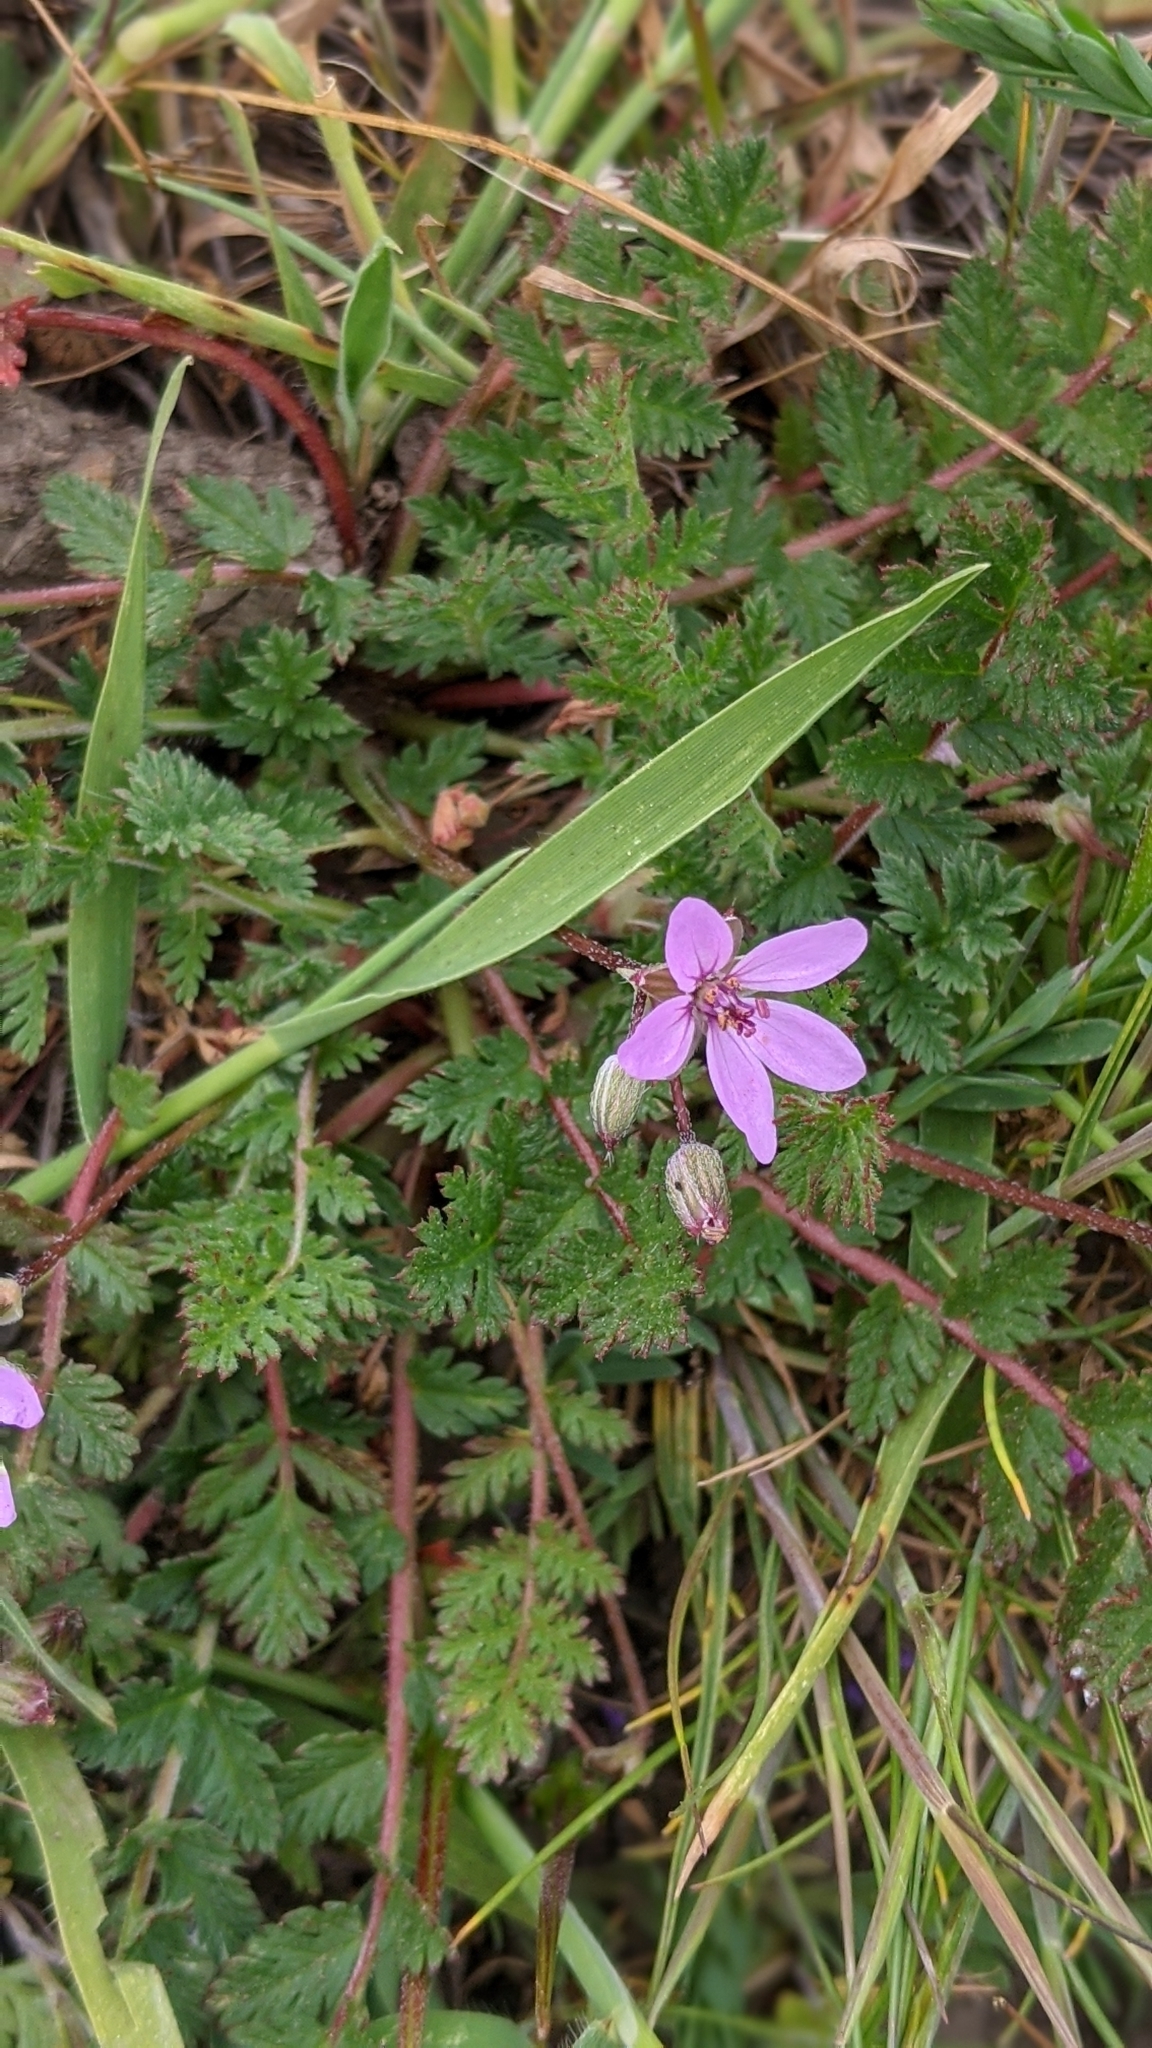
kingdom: Plantae
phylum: Tracheophyta
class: Magnoliopsida
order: Geraniales
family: Geraniaceae
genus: Erodium
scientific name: Erodium cicutarium
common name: Common stork's-bill
